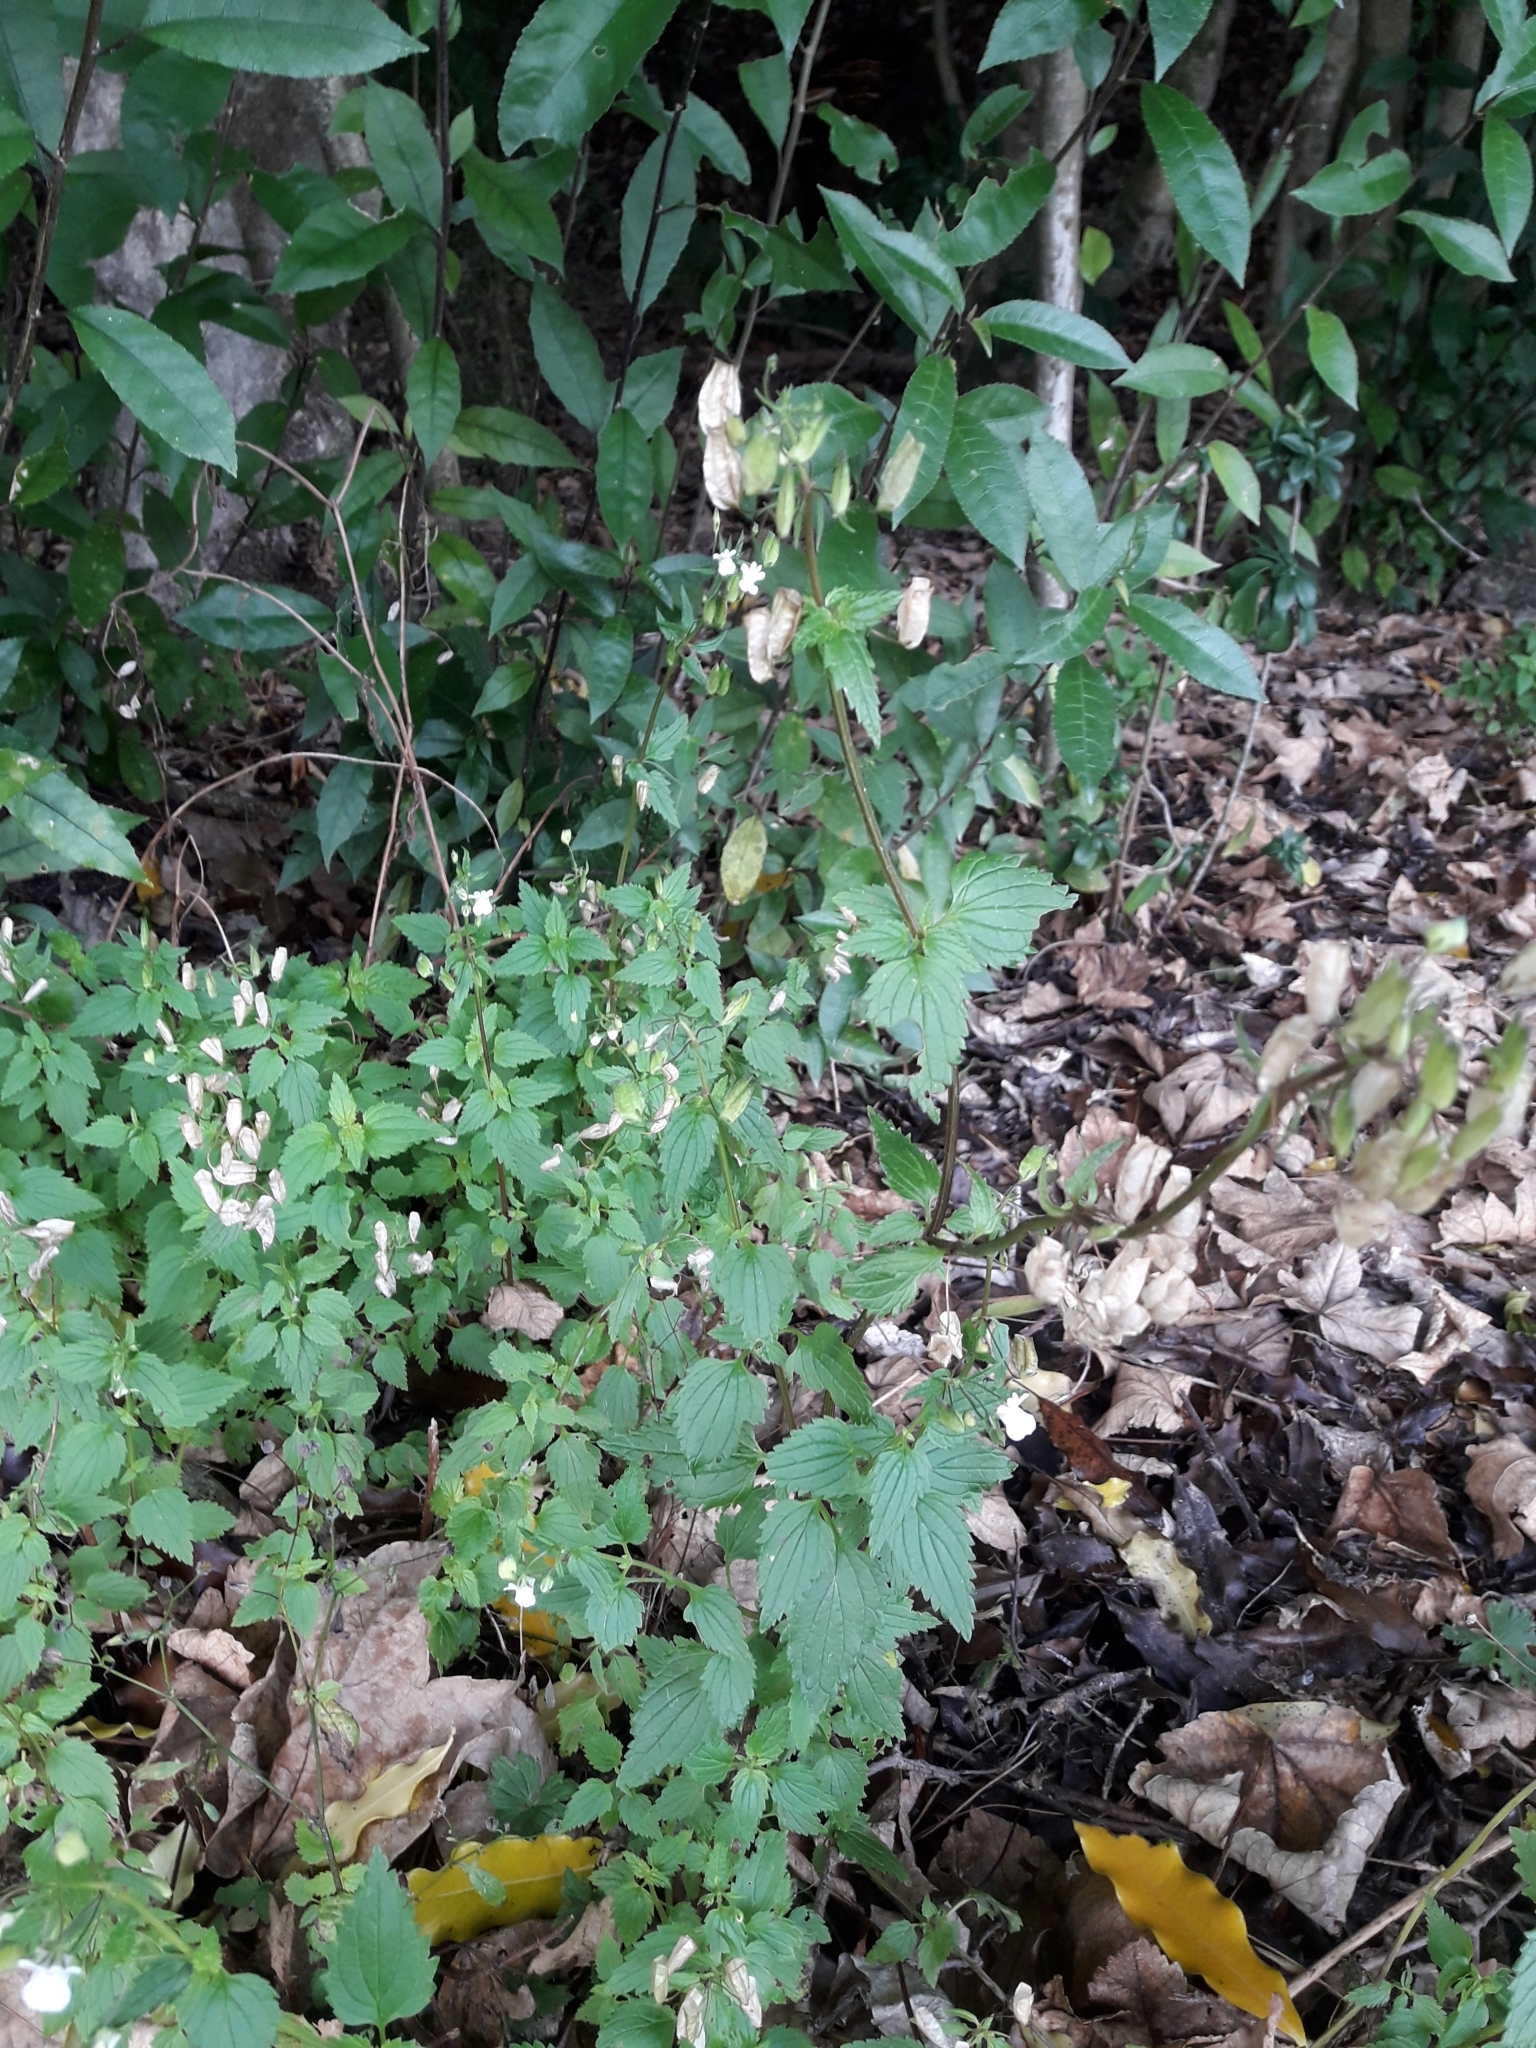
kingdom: Plantae
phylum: Tracheophyta
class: Magnoliopsida
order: Lamiales
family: Scrophulariaceae
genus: Nemesia
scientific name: Nemesia floribunda
